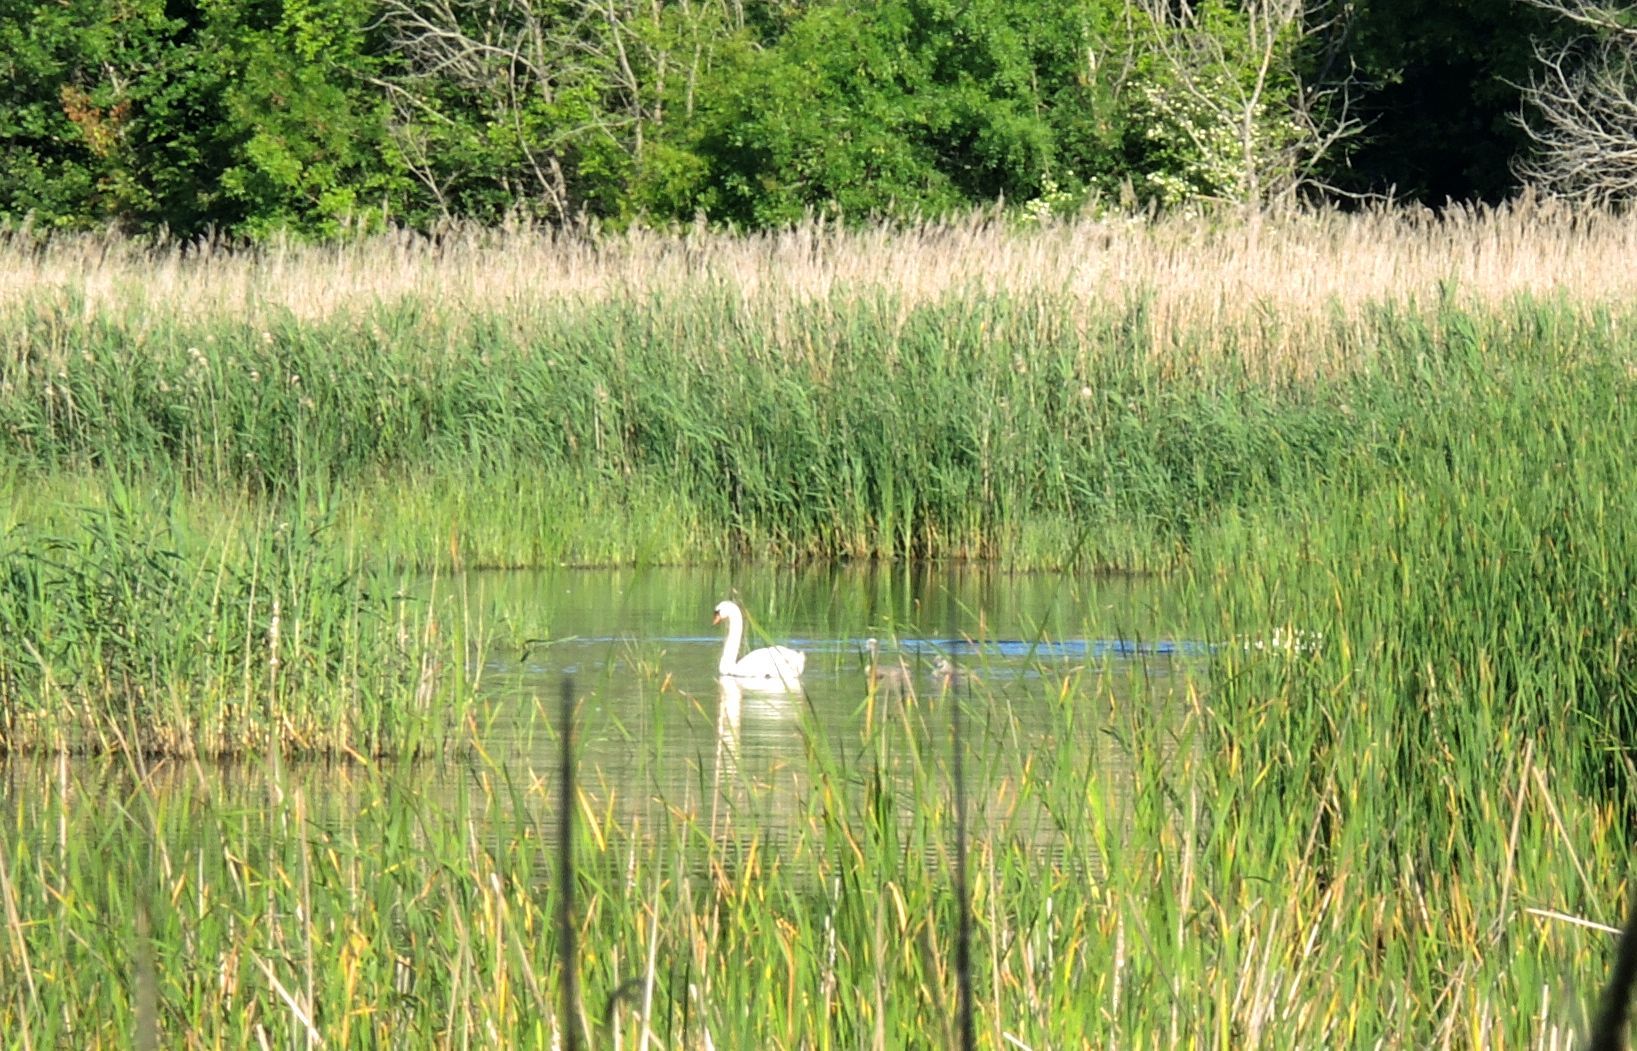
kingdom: Animalia
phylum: Chordata
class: Aves
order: Anseriformes
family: Anatidae
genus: Cygnus
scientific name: Cygnus olor
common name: Mute swan
